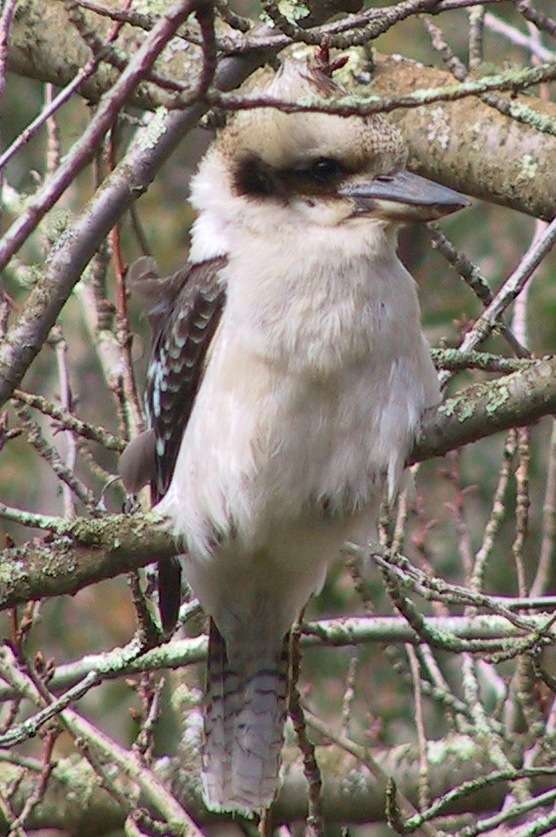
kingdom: Animalia
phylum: Chordata
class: Aves
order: Coraciiformes
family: Alcedinidae
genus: Dacelo
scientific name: Dacelo novaeguineae
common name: Laughing kookaburra
